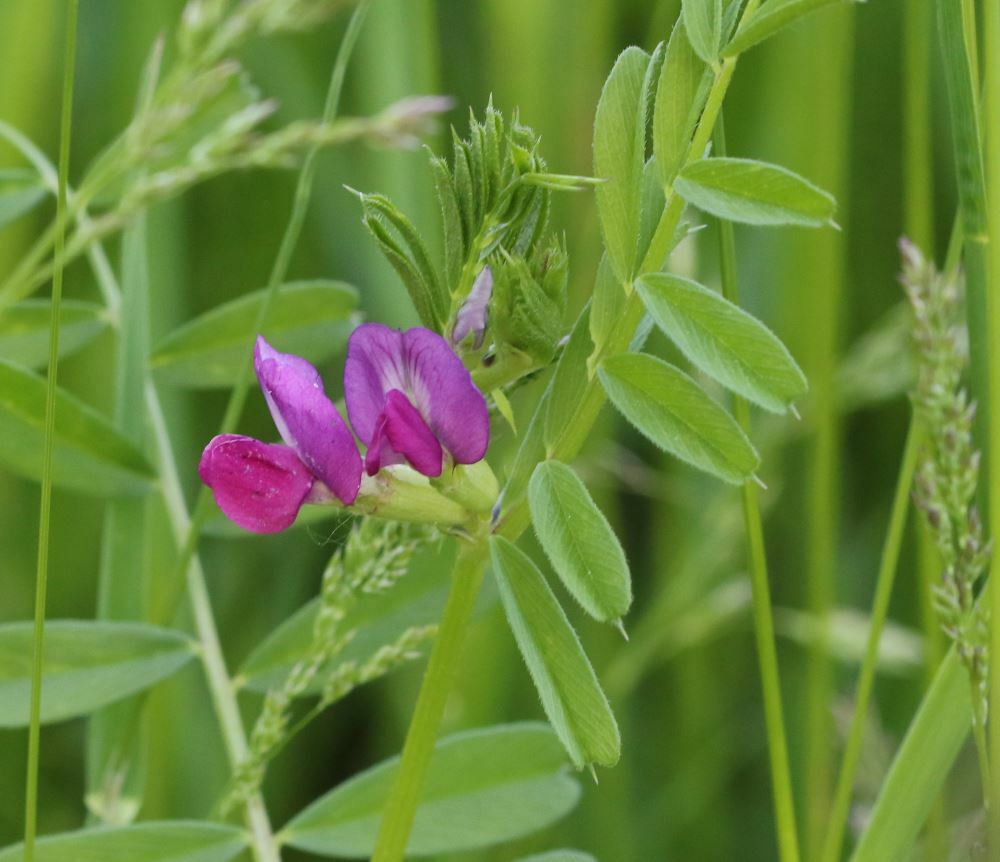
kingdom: Plantae
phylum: Tracheophyta
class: Magnoliopsida
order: Fabales
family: Fabaceae
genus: Vicia
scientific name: Vicia sativa
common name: Garden vetch
